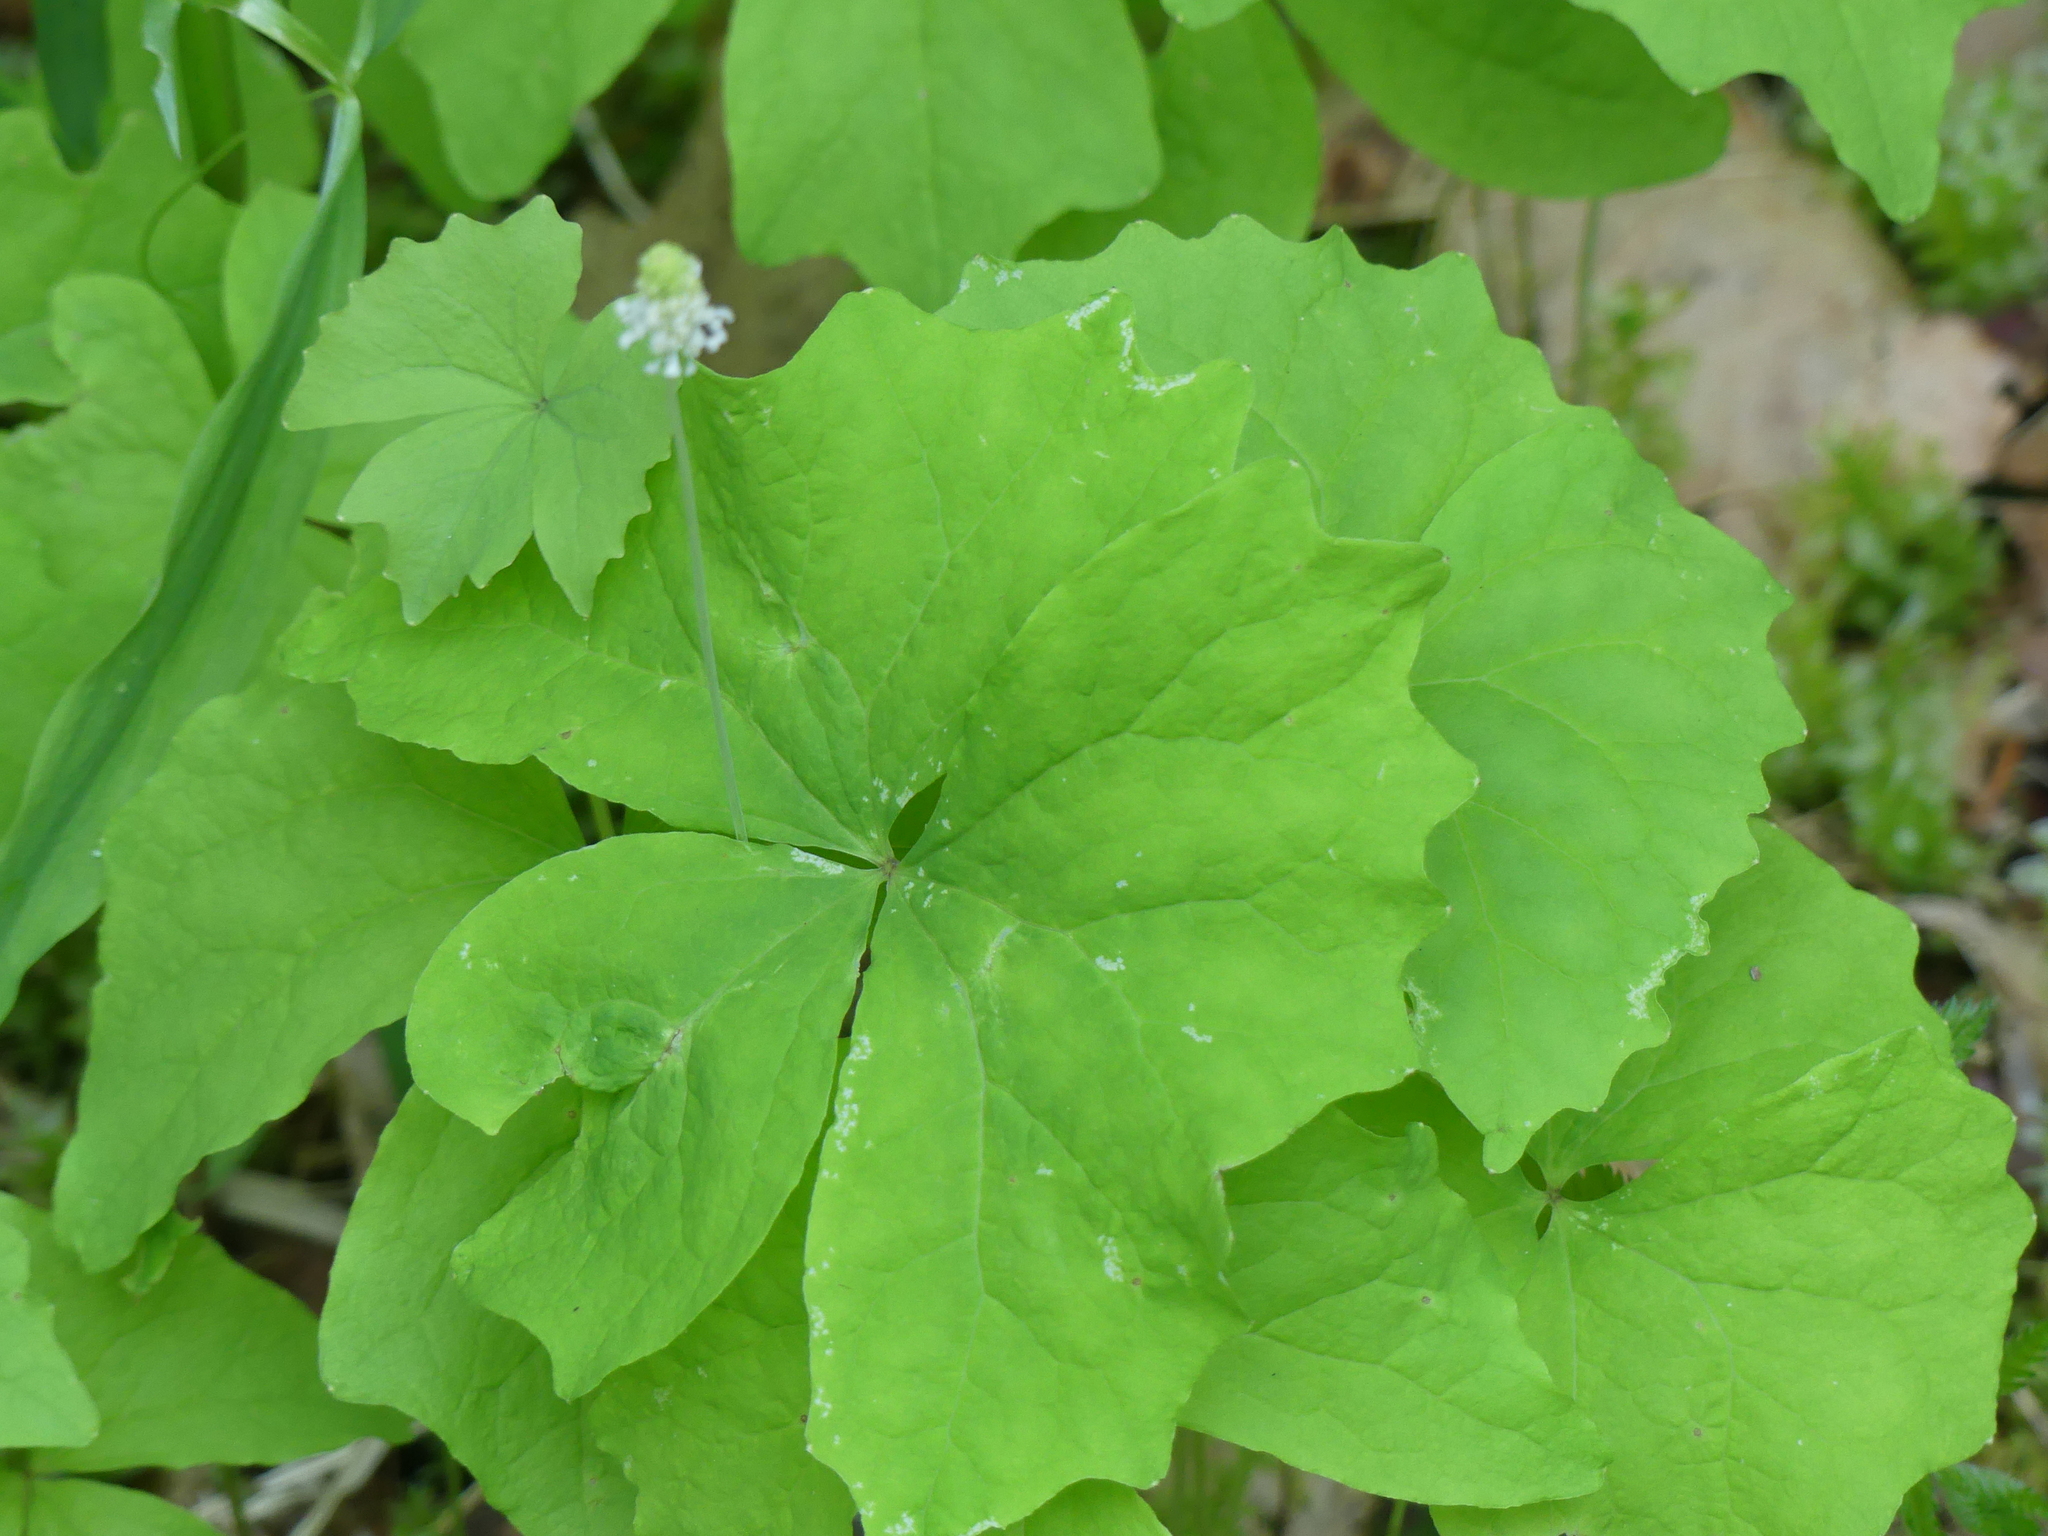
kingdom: Plantae
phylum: Tracheophyta
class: Magnoliopsida
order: Ranunculales
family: Berberidaceae
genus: Achlys
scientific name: Achlys triphylla
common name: Vanilla-leaf
